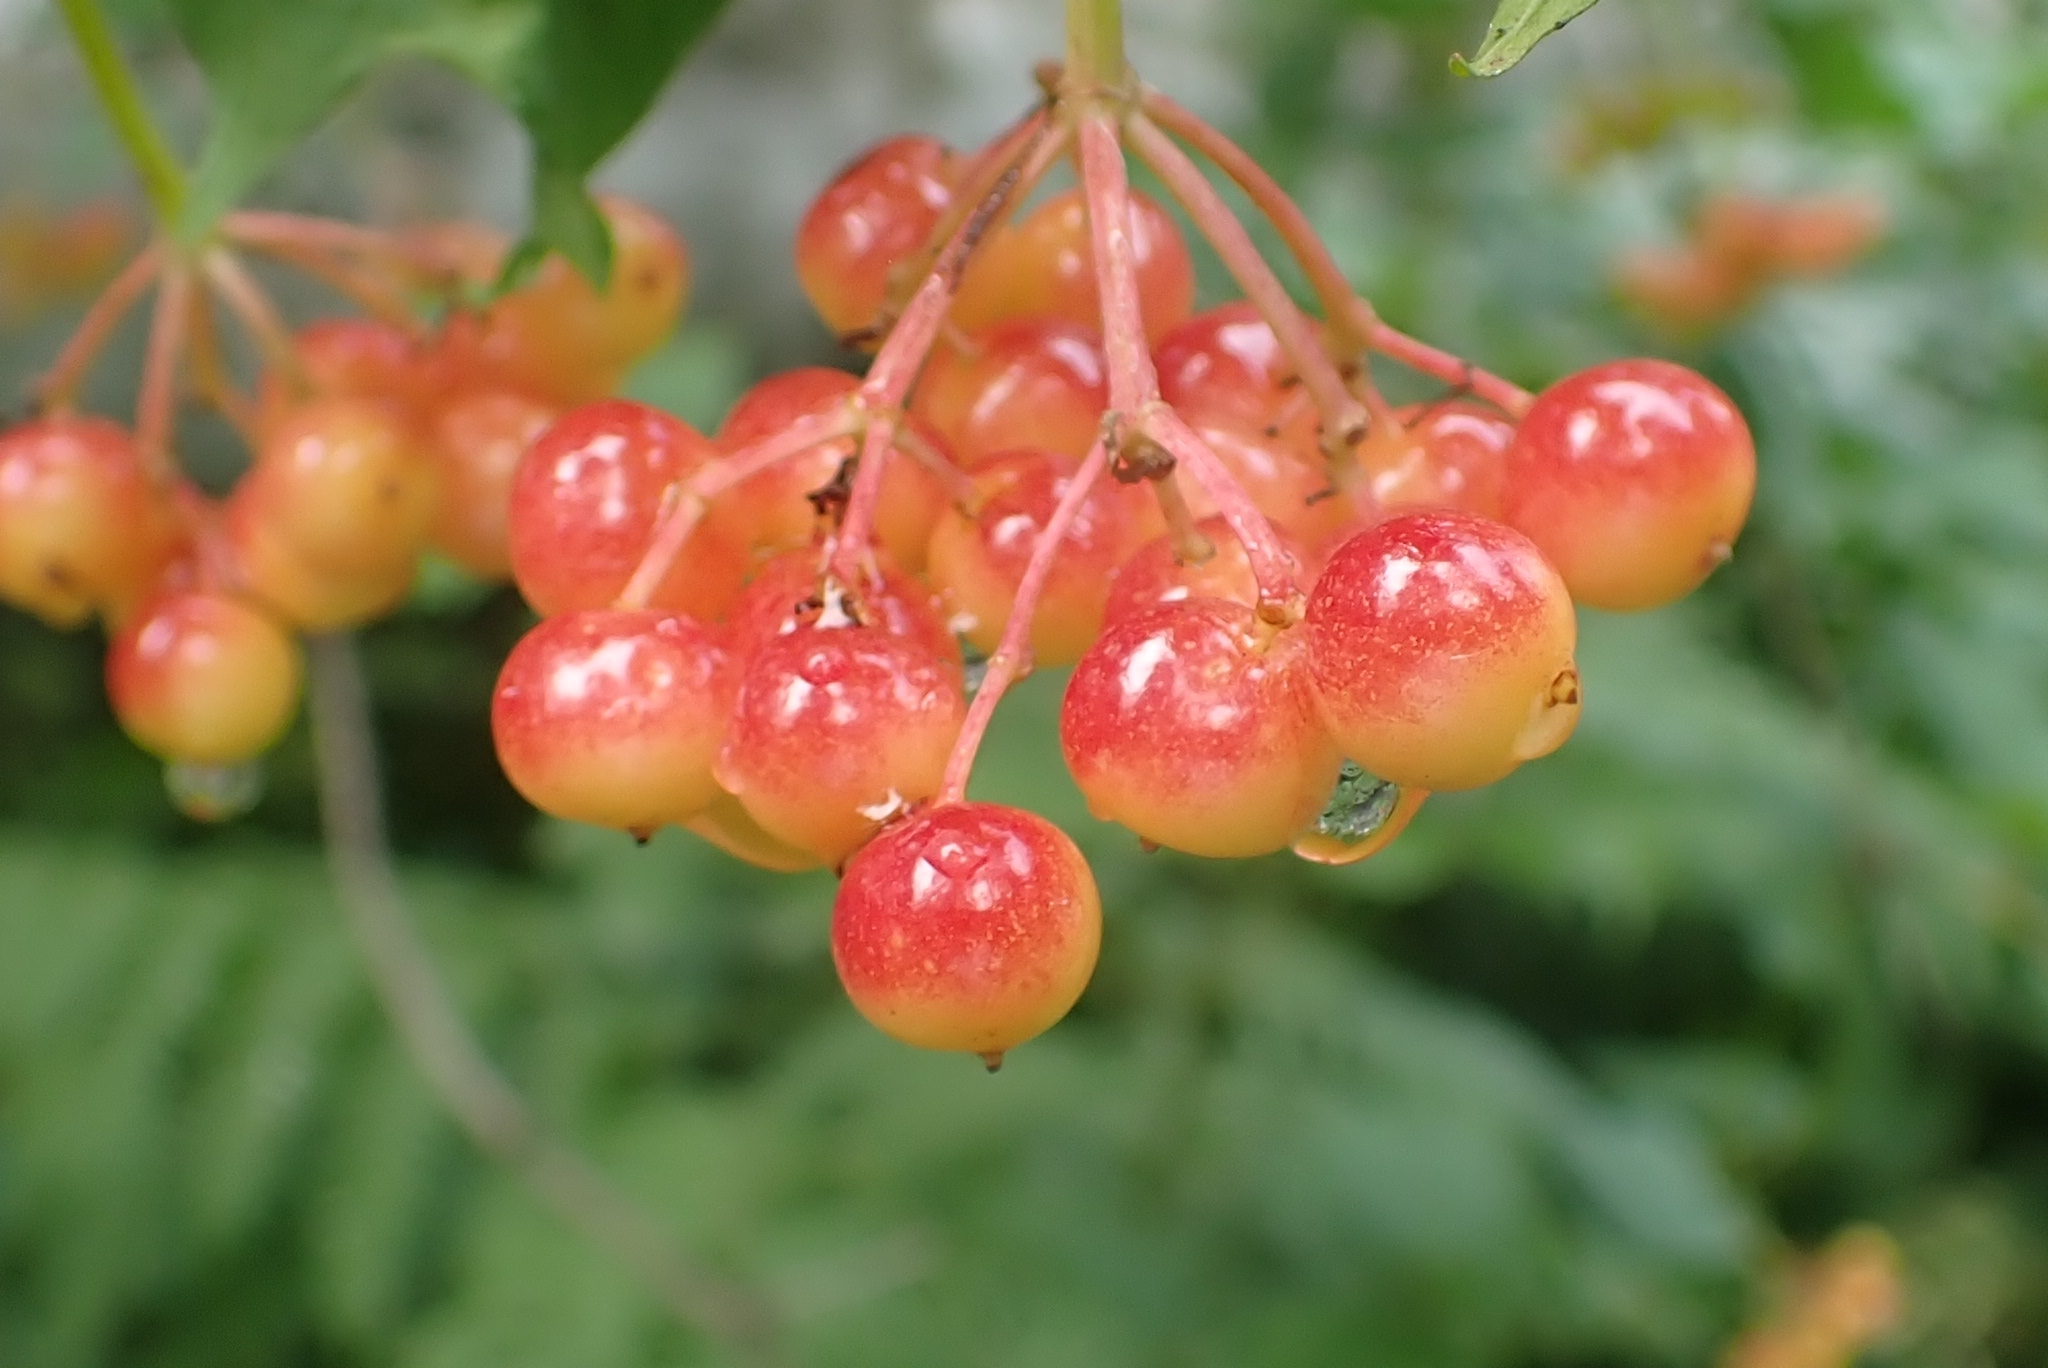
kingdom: Plantae
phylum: Tracheophyta
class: Magnoliopsida
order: Dipsacales
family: Viburnaceae
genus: Viburnum
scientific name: Viburnum opulus
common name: Guelder-rose
